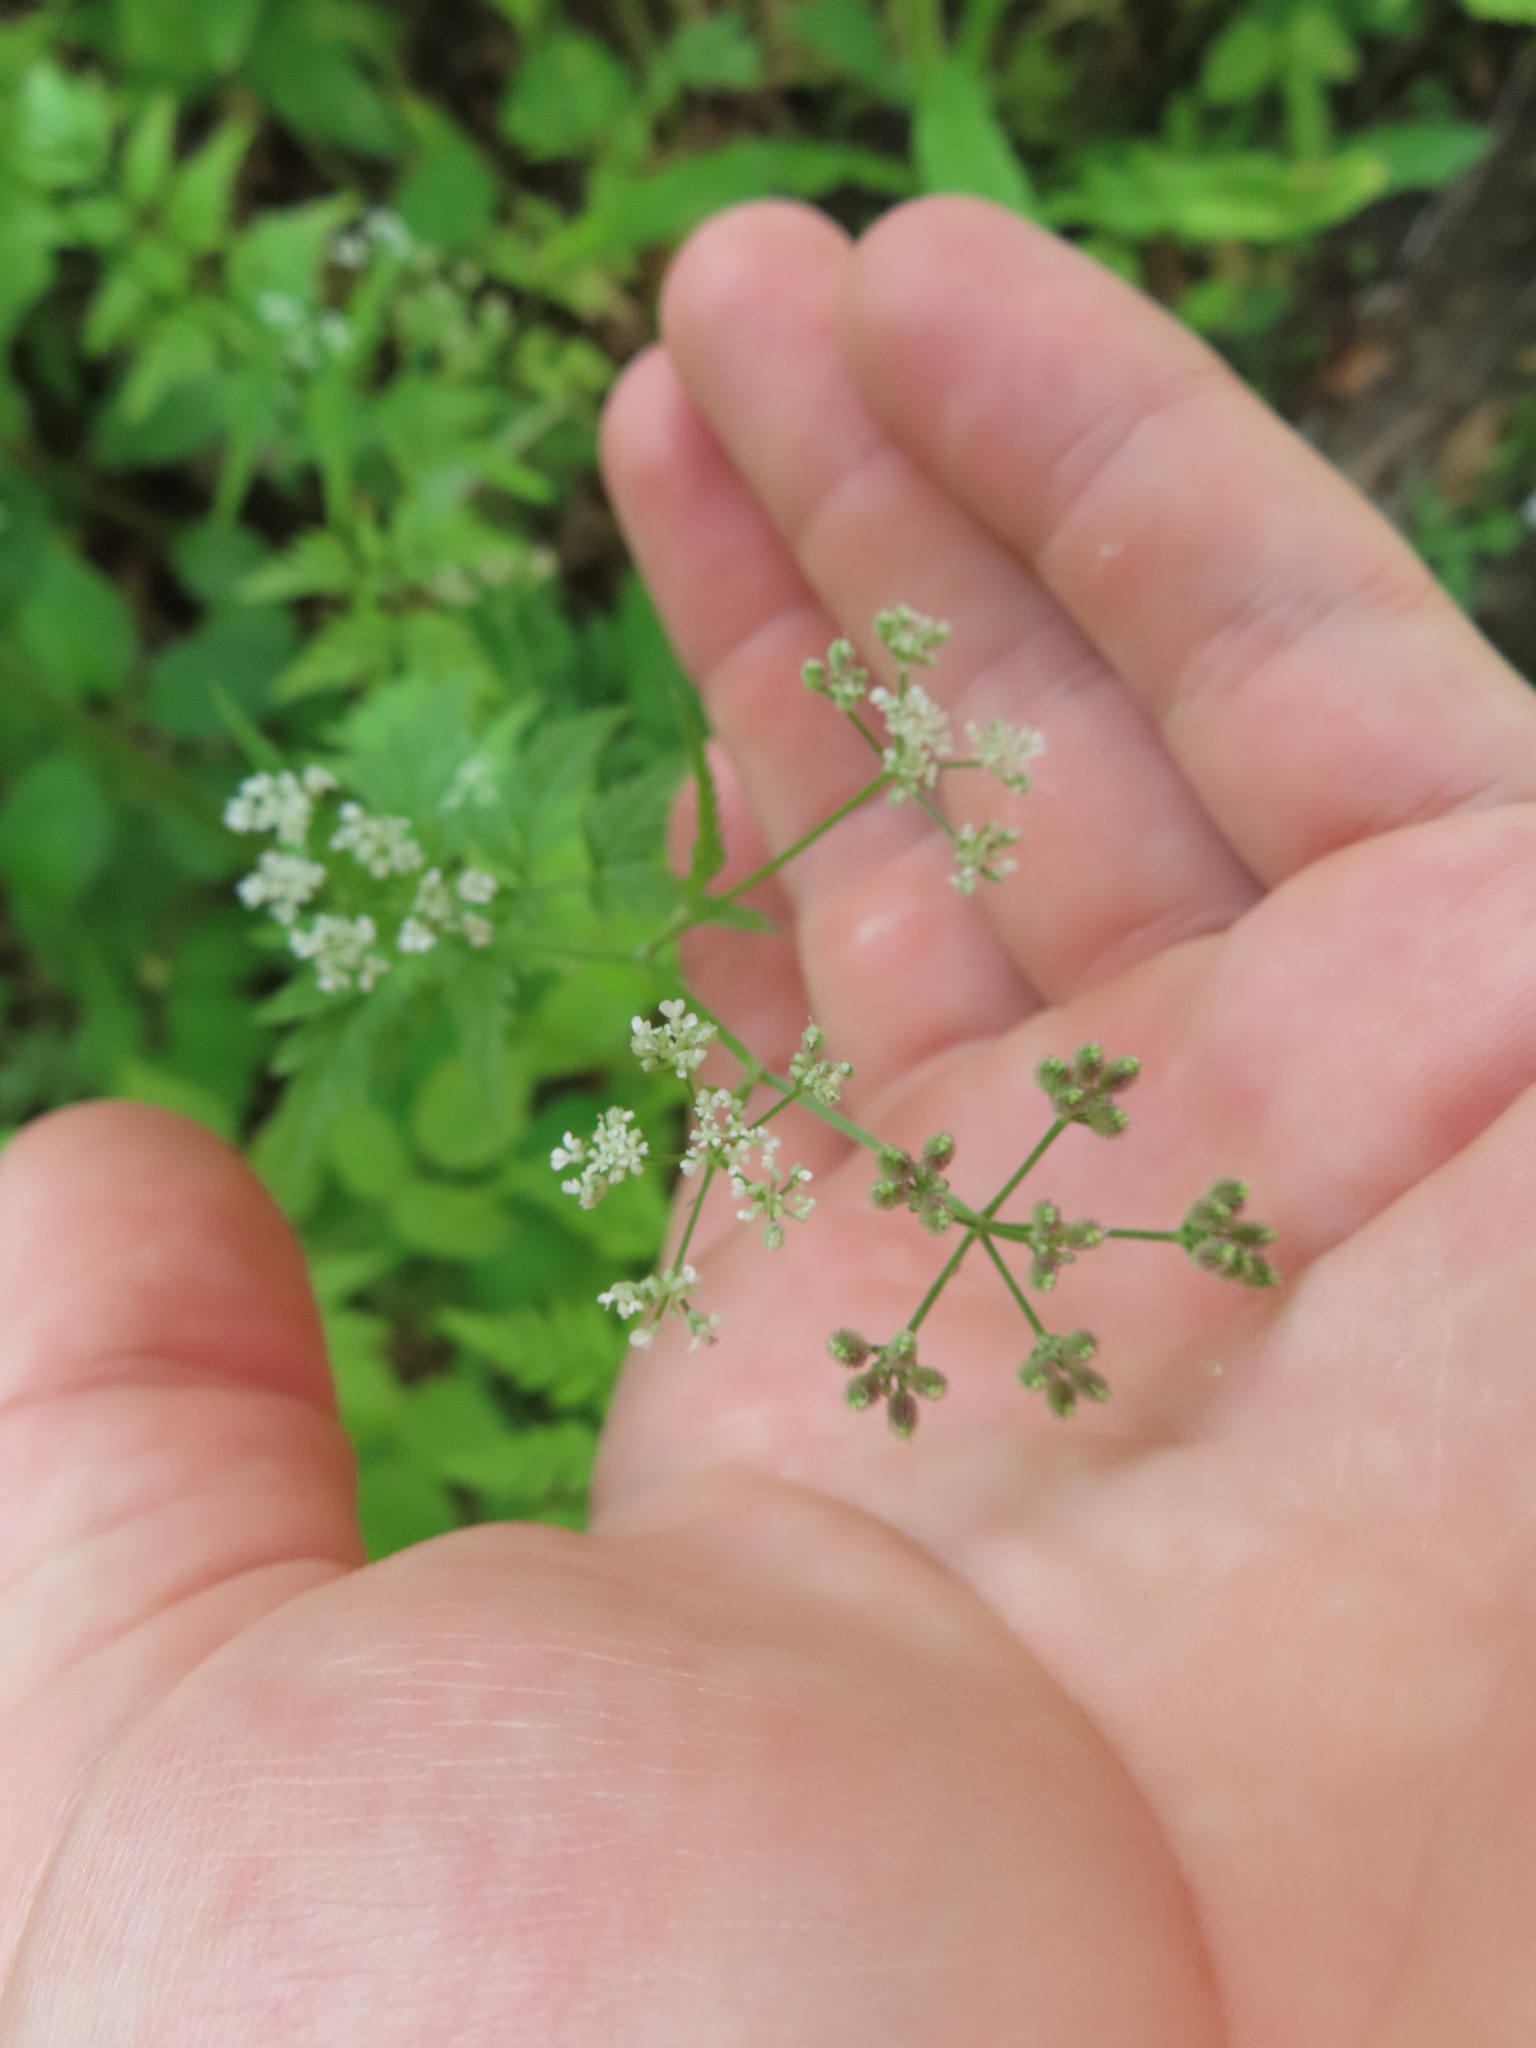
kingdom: Plantae
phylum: Tracheophyta
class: Magnoliopsida
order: Apiales
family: Apiaceae
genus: Torilis
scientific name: Torilis japonica
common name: Upright hedge-parsley
